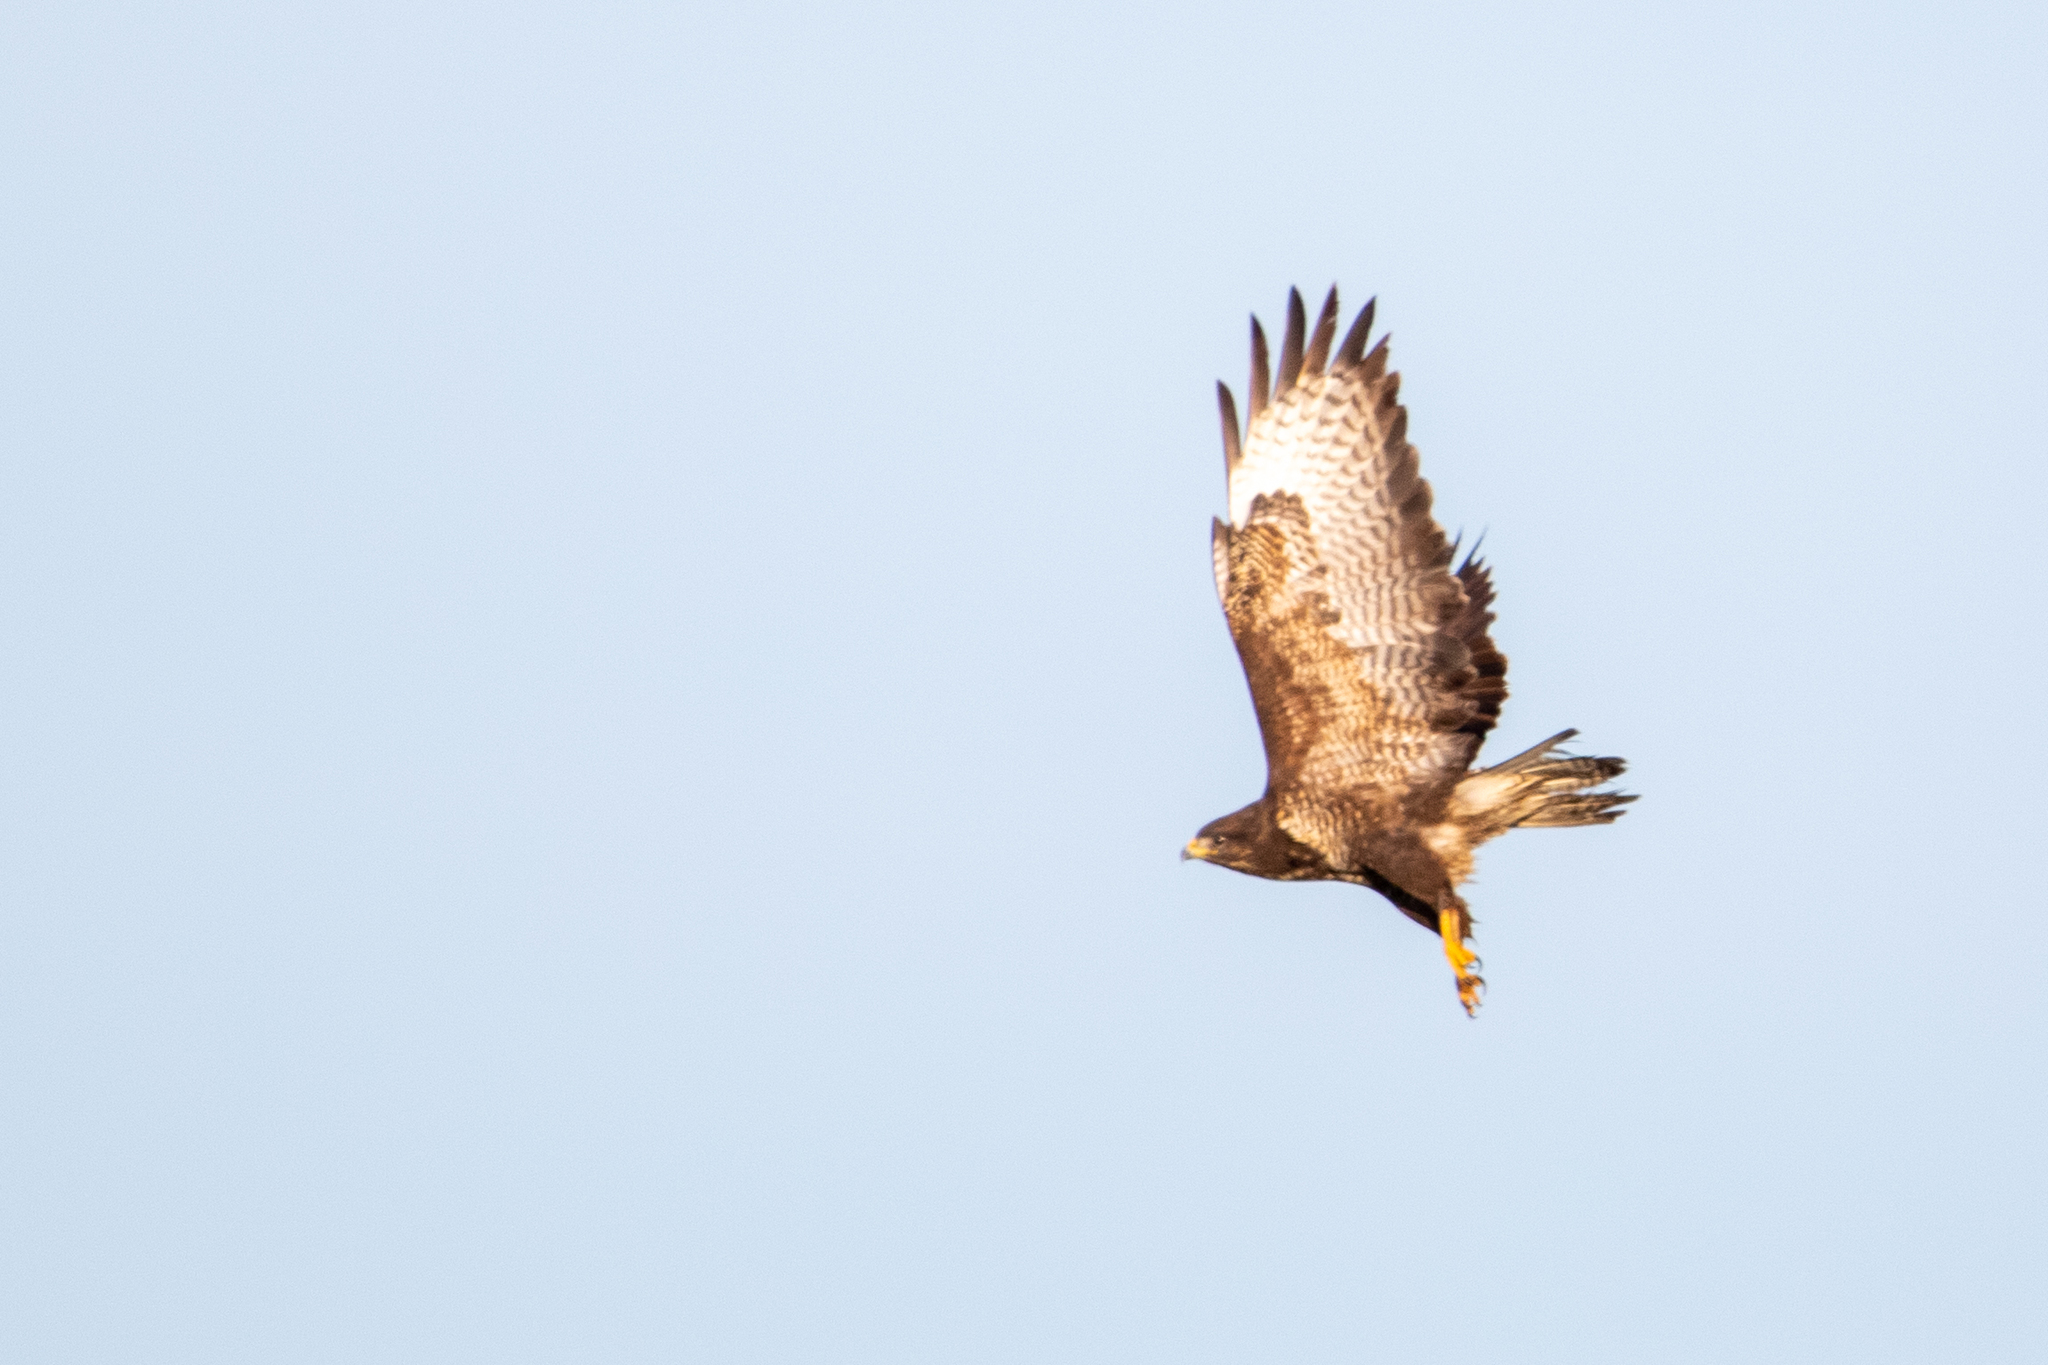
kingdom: Animalia
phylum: Chordata
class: Aves
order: Accipitriformes
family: Accipitridae
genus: Buteo
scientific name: Buteo buteo
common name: Common buzzard
